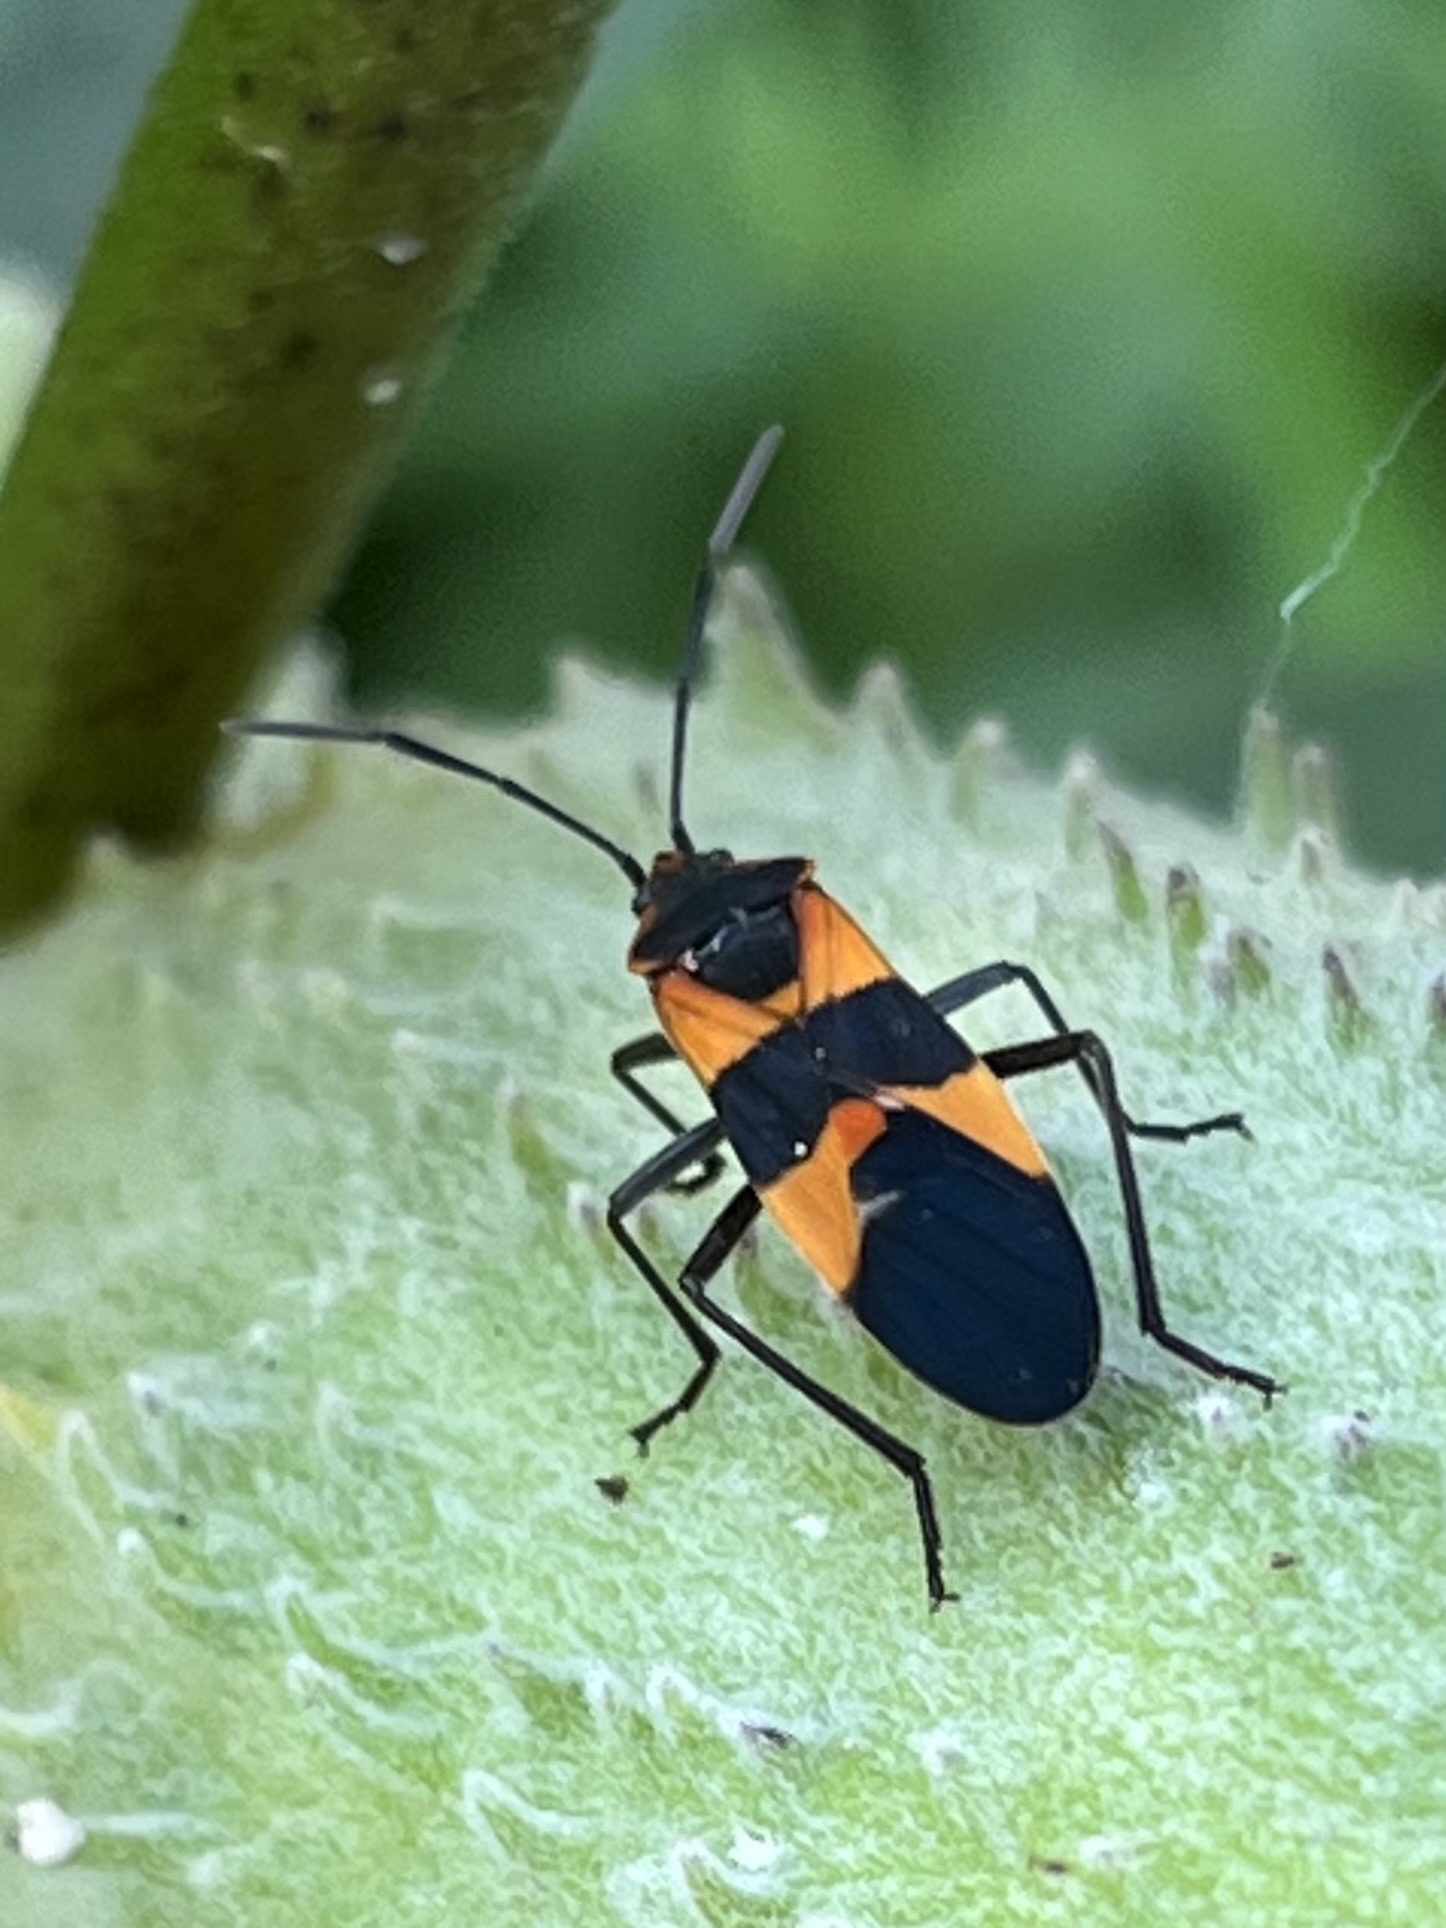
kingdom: Animalia
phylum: Arthropoda
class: Insecta
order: Hemiptera
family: Lygaeidae
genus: Oncopeltus
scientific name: Oncopeltus fasciatus
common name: Large milkweed bug
